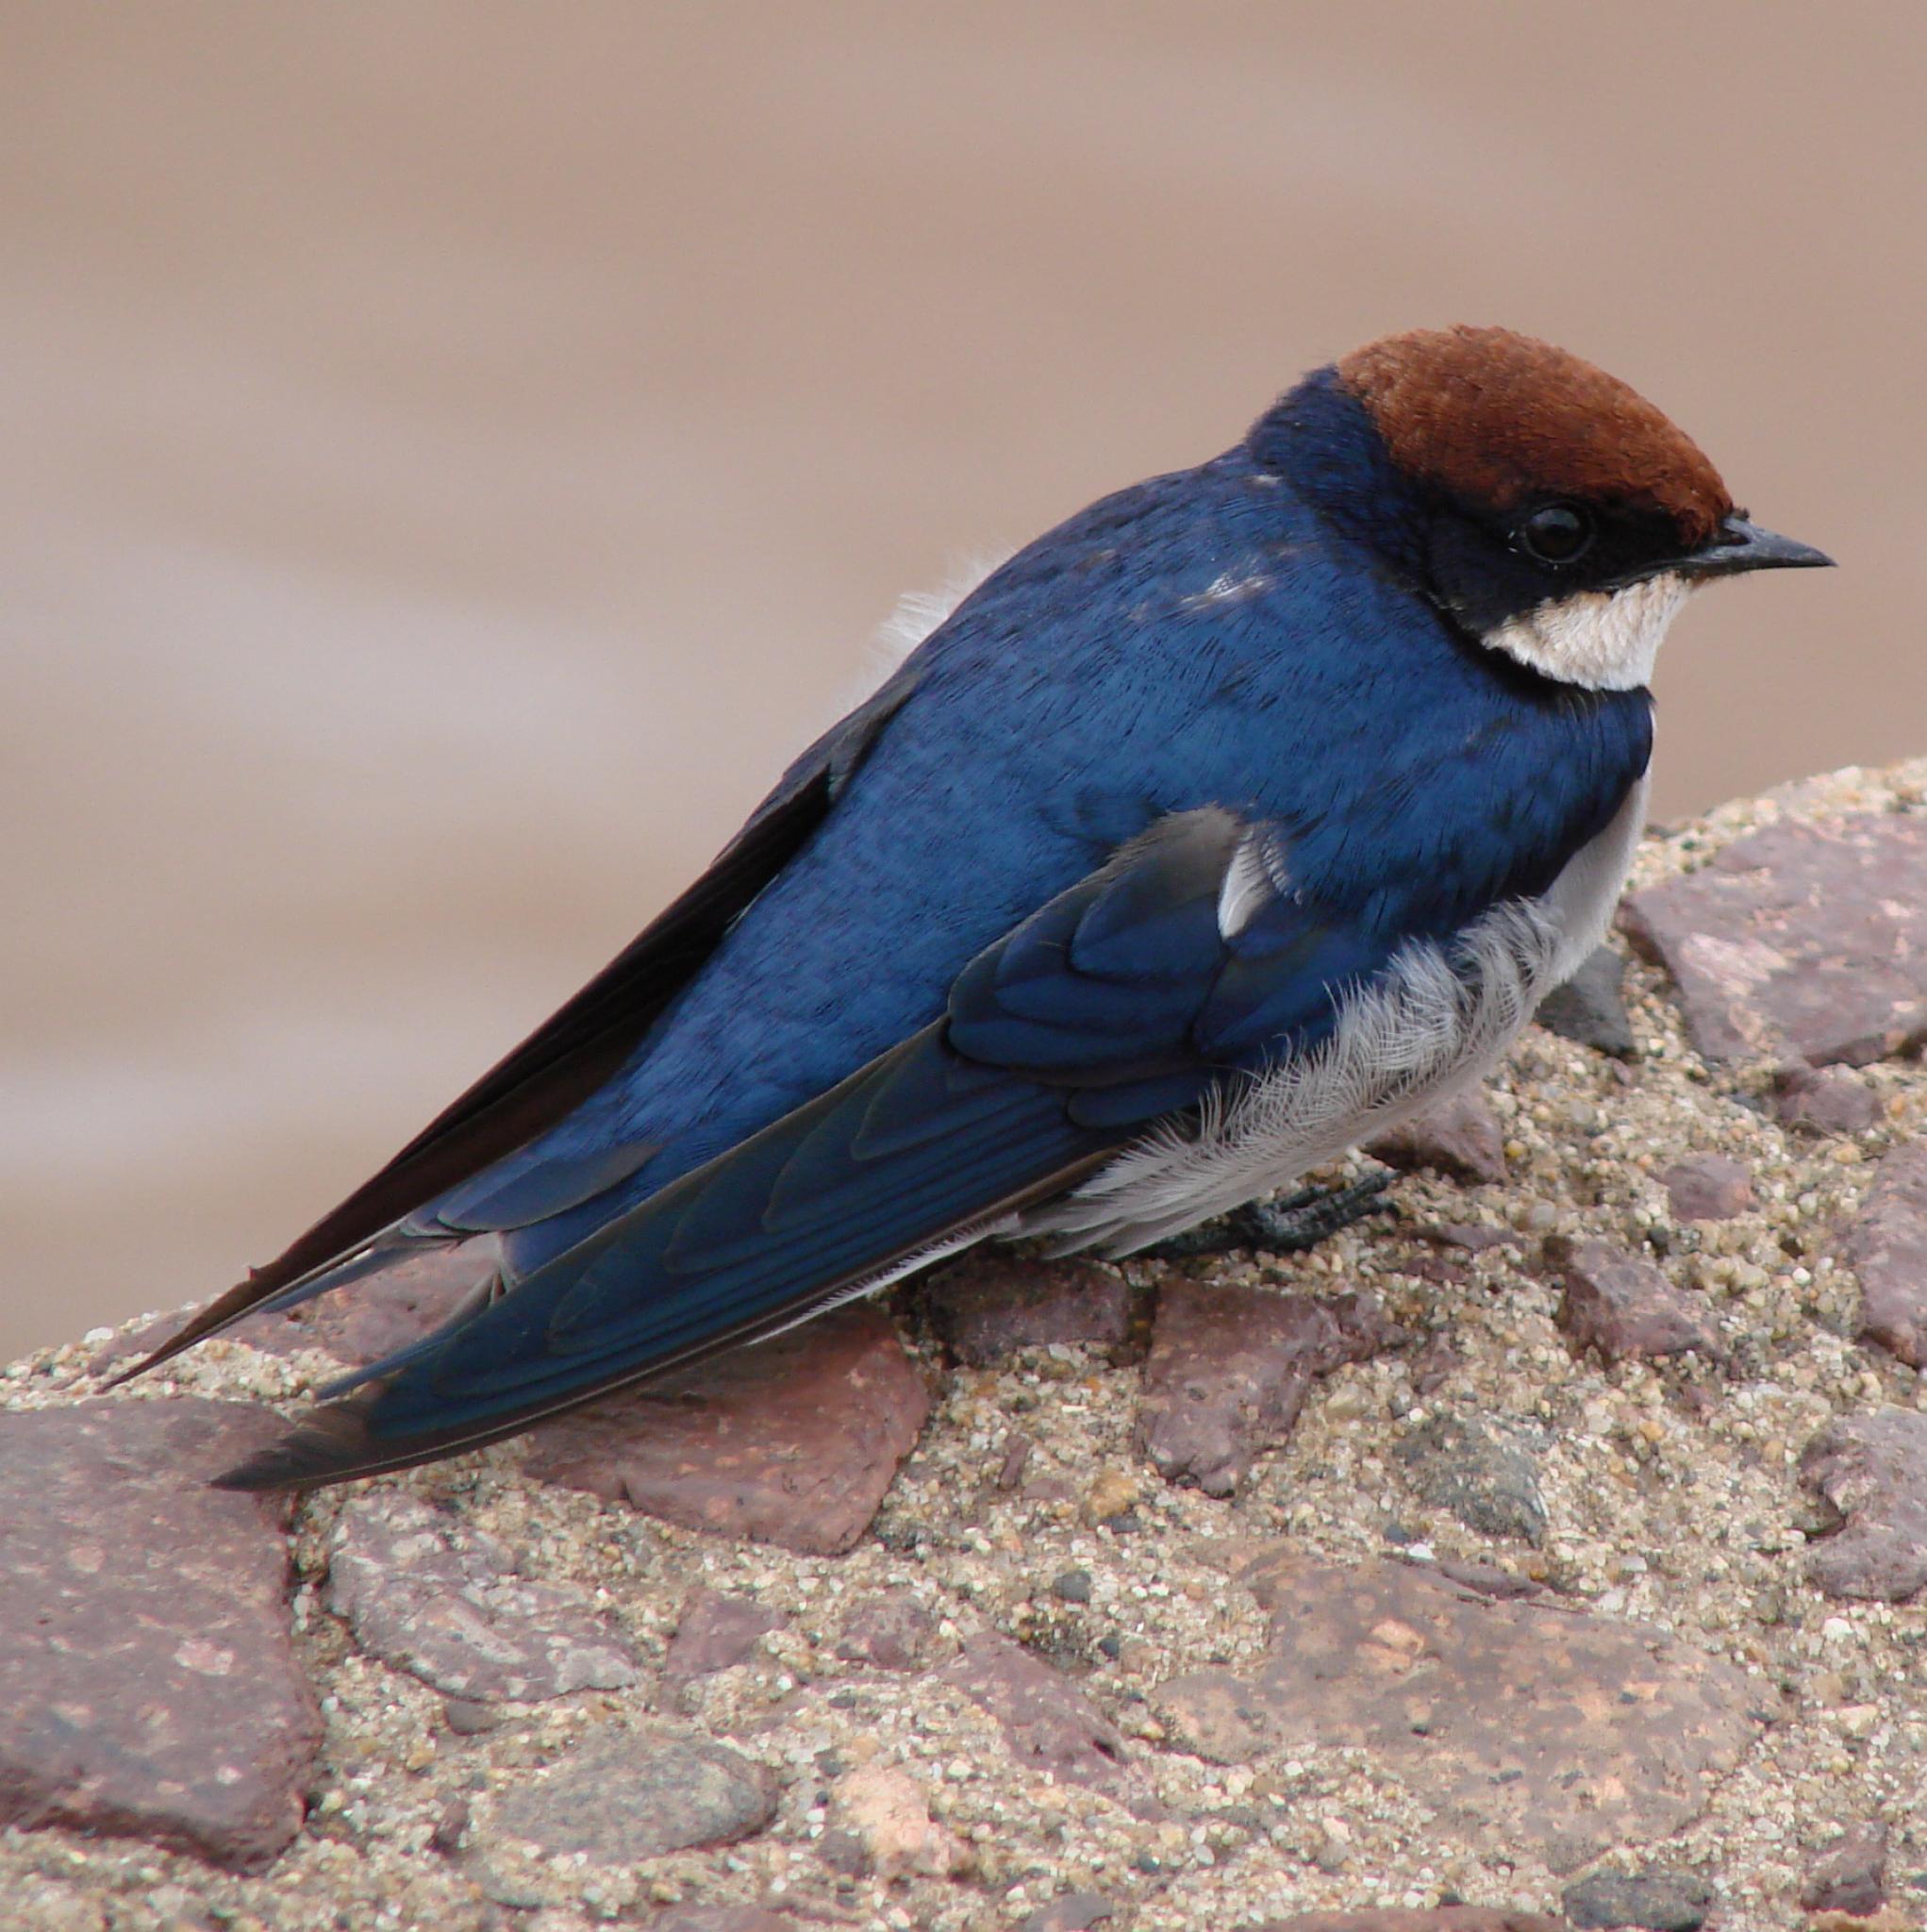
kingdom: Animalia
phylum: Chordata
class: Aves
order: Passeriformes
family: Hirundinidae
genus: Hirundo
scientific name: Hirundo smithii
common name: Wire-tailed swallow
